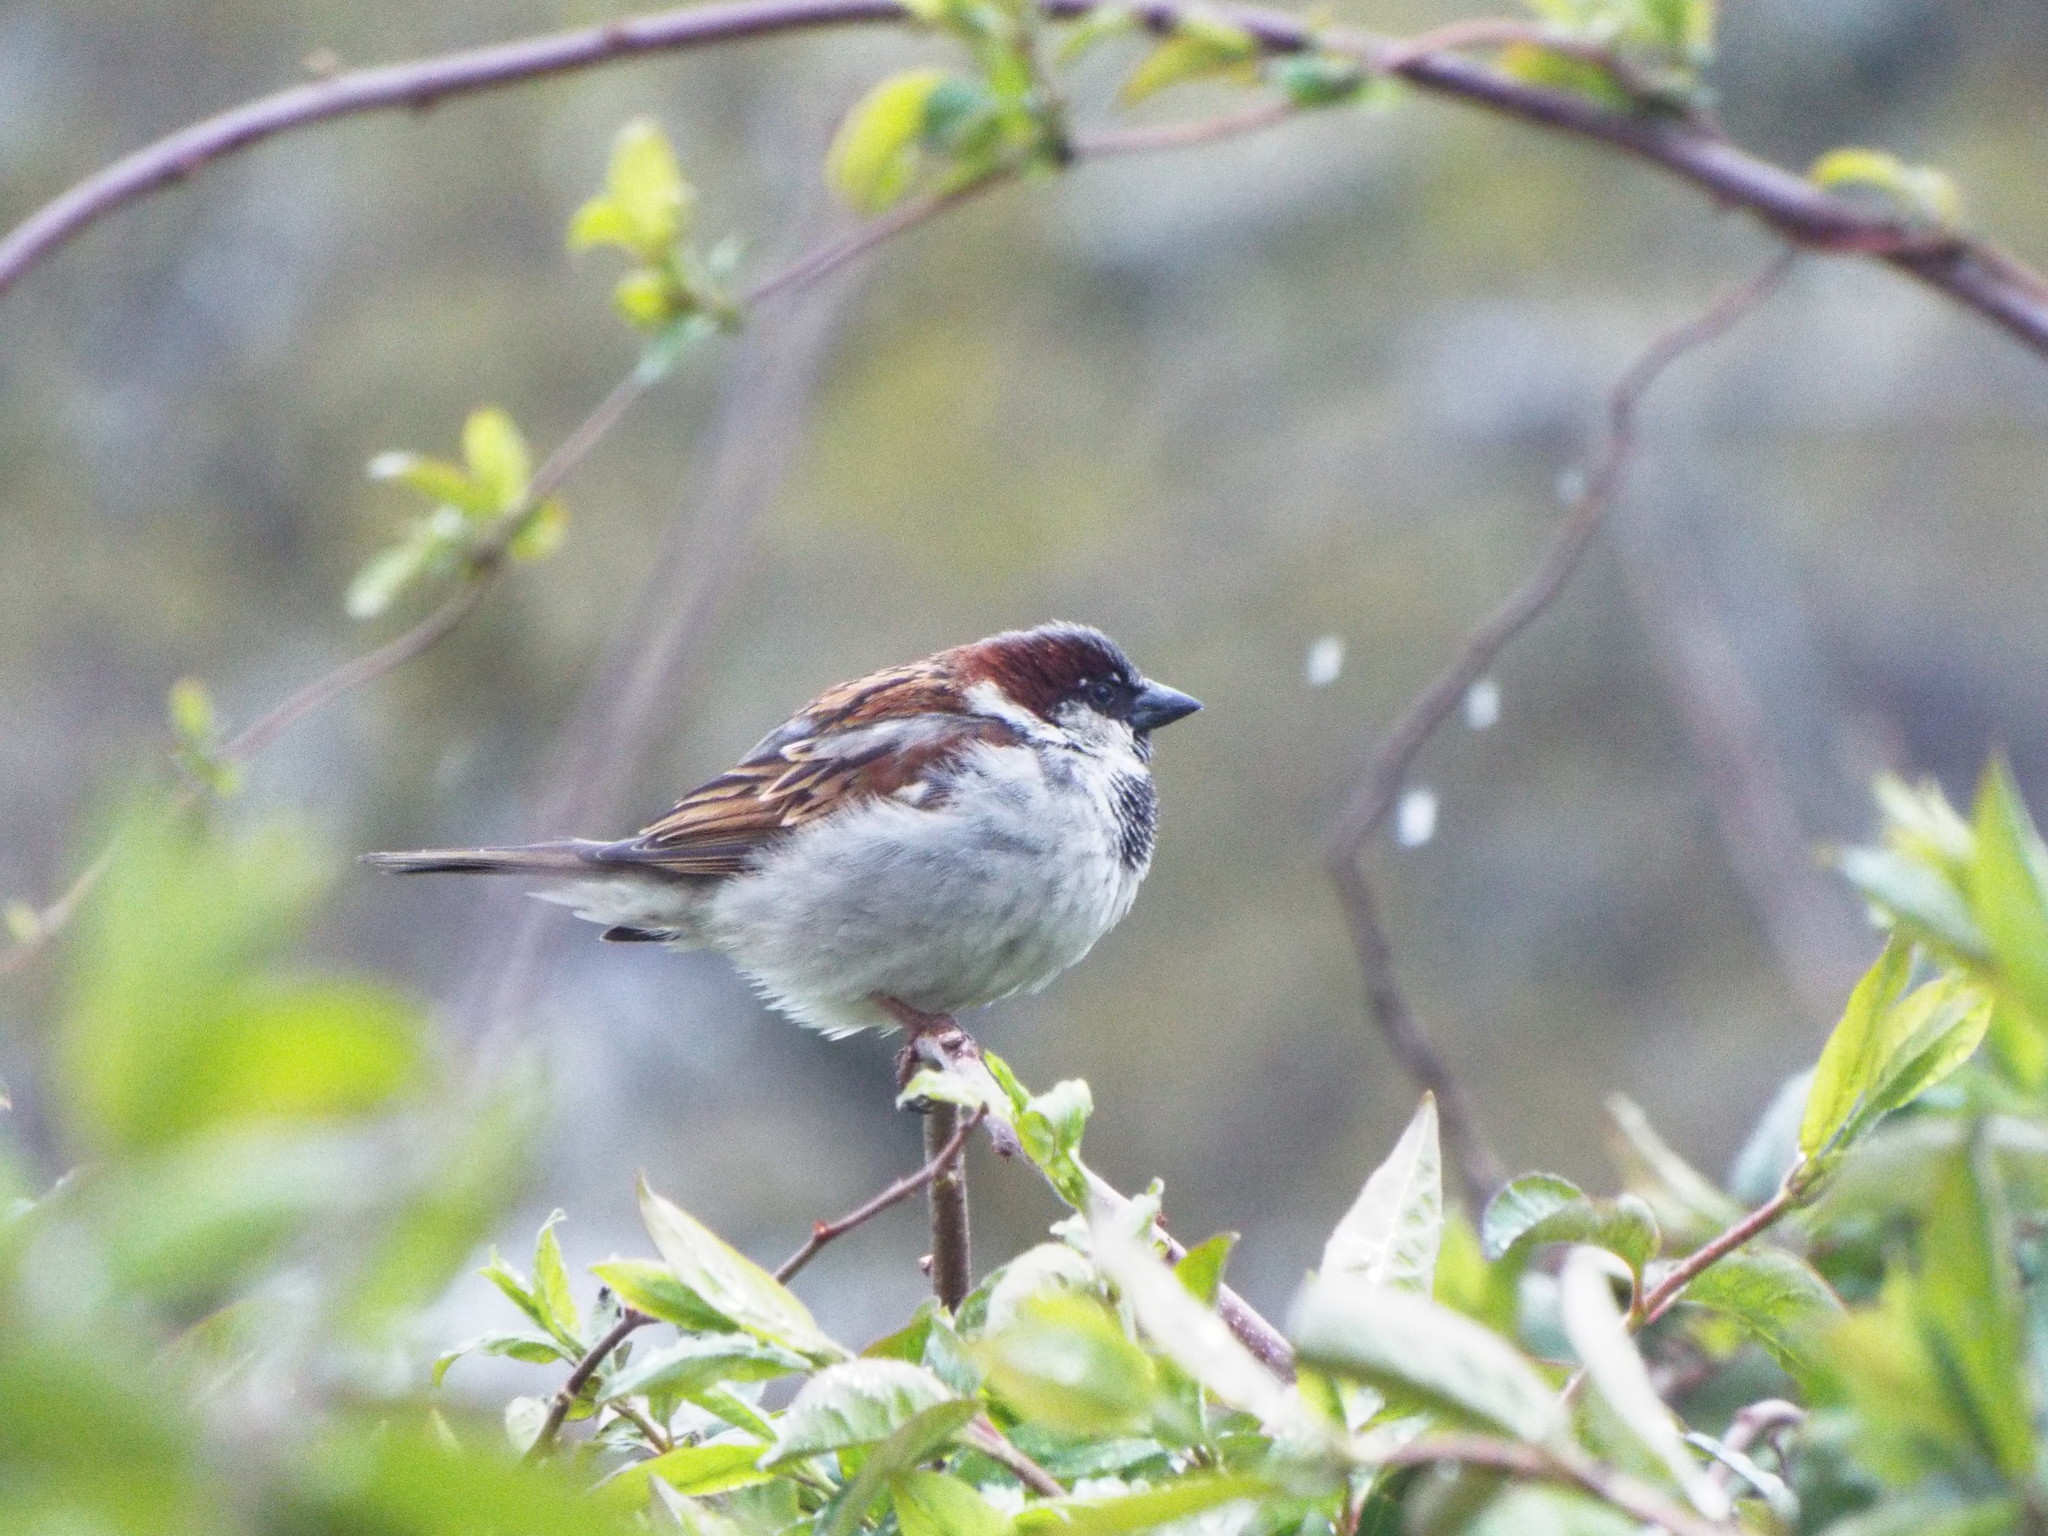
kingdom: Animalia
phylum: Chordata
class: Aves
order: Passeriformes
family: Passeridae
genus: Passer
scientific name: Passer domesticus
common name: House sparrow
